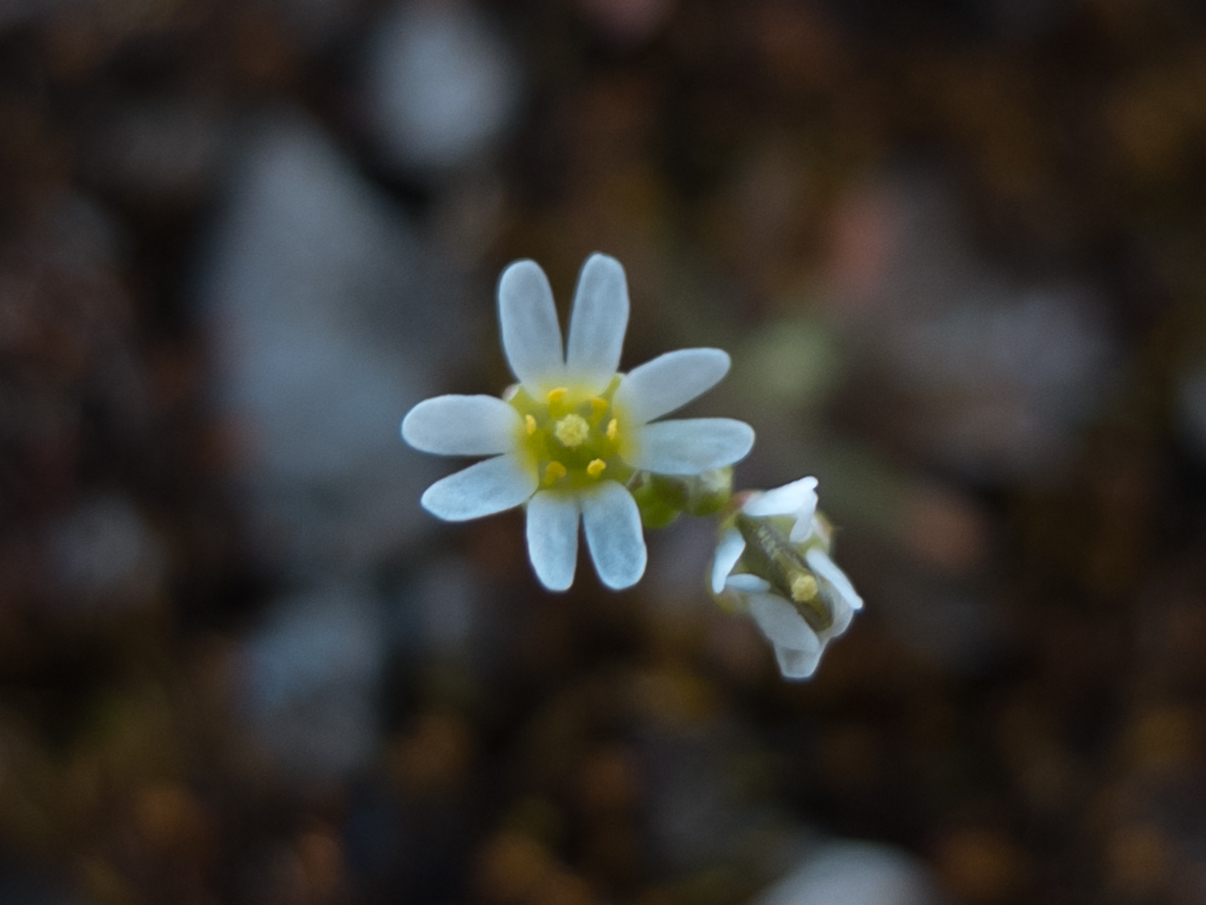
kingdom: Plantae
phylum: Tracheophyta
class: Magnoliopsida
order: Brassicales
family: Brassicaceae
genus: Draba
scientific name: Draba verna
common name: Spring draba
